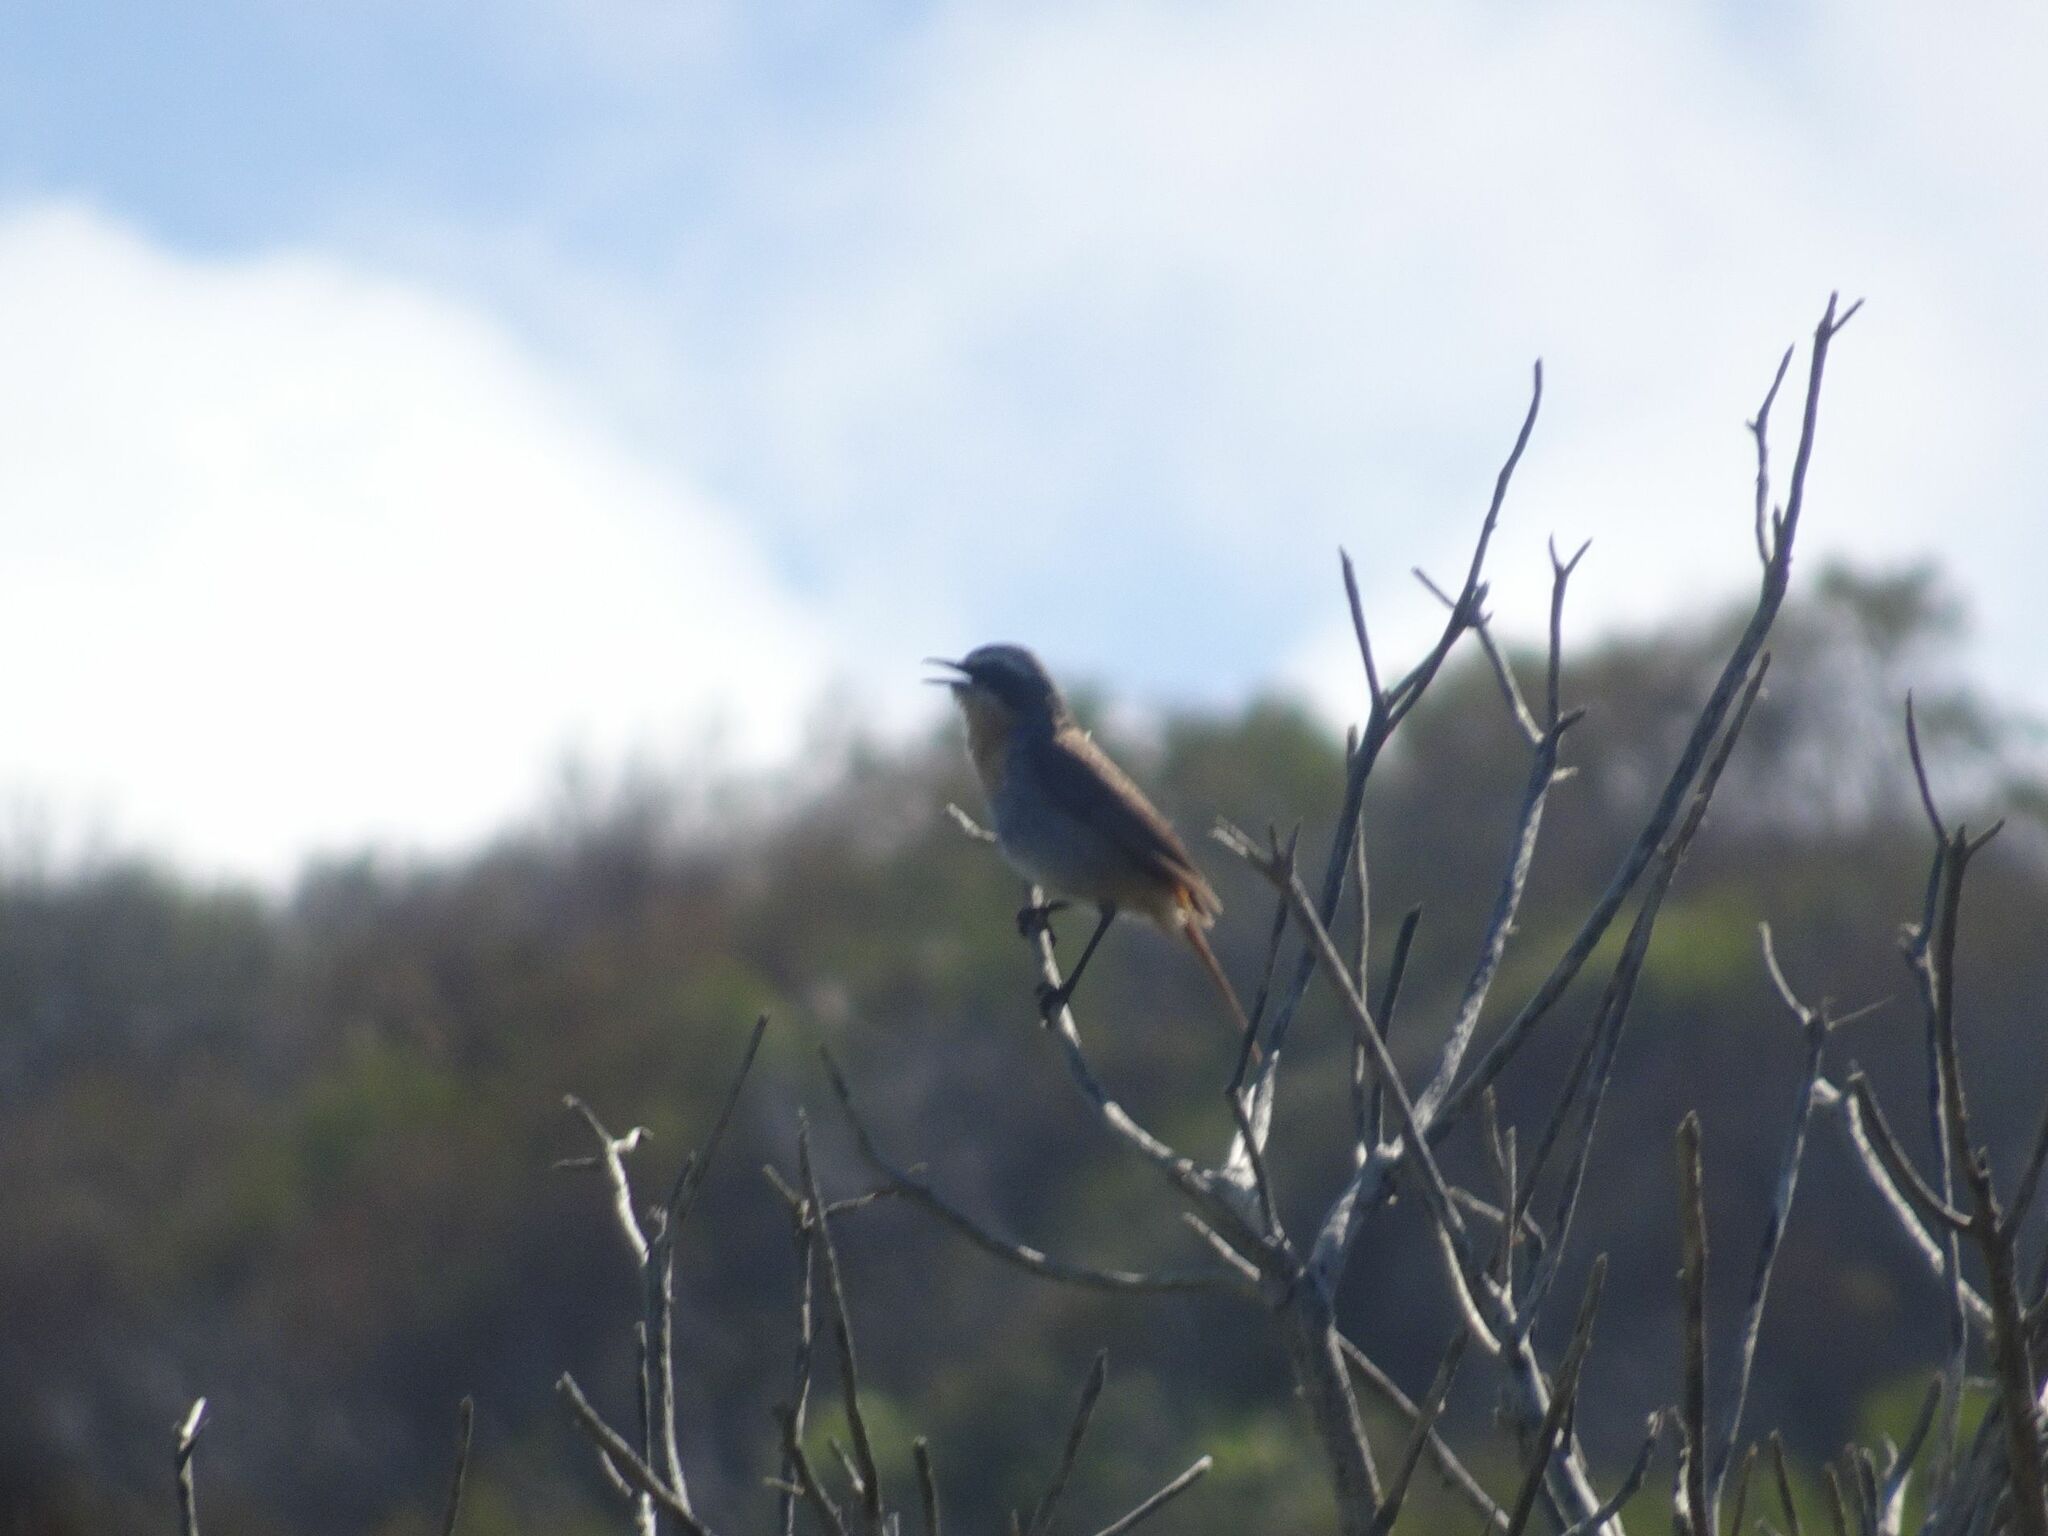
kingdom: Animalia
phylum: Chordata
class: Aves
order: Passeriformes
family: Muscicapidae
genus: Cossypha
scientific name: Cossypha caffra
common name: Cape robin-chat
